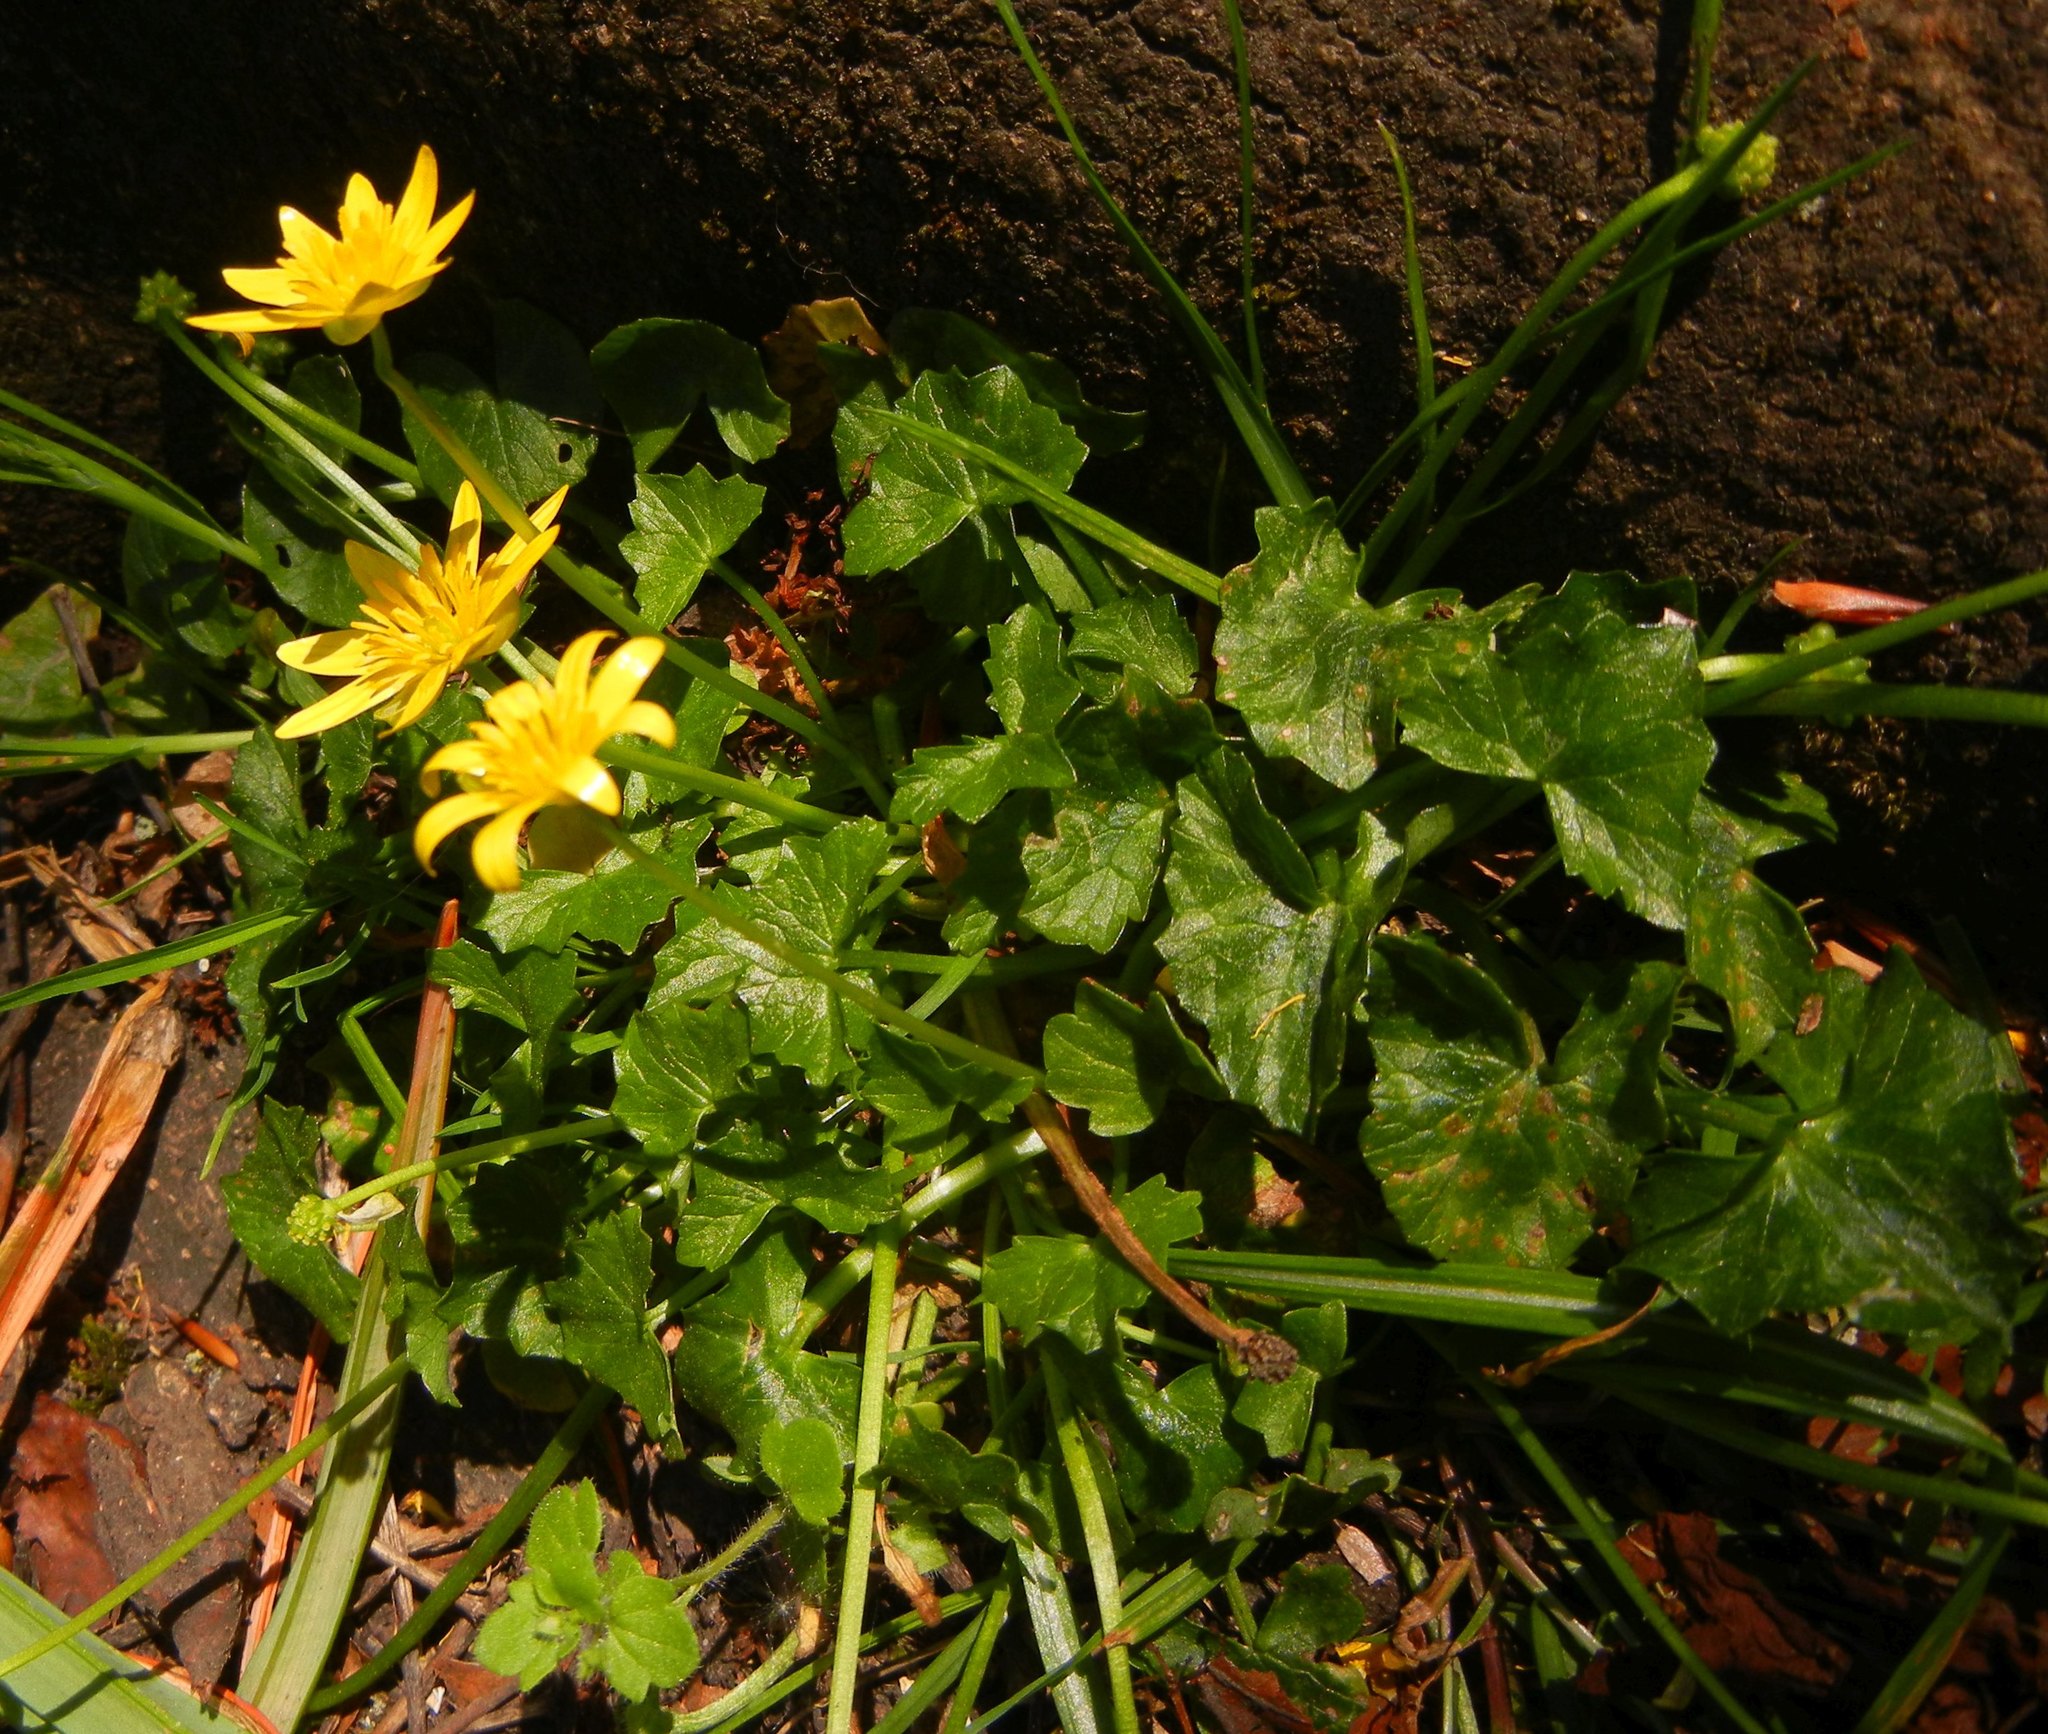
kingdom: Plantae
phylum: Tracheophyta
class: Magnoliopsida
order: Ranunculales
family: Ranunculaceae
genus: Ficaria
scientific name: Ficaria verna
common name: Lesser celandine
